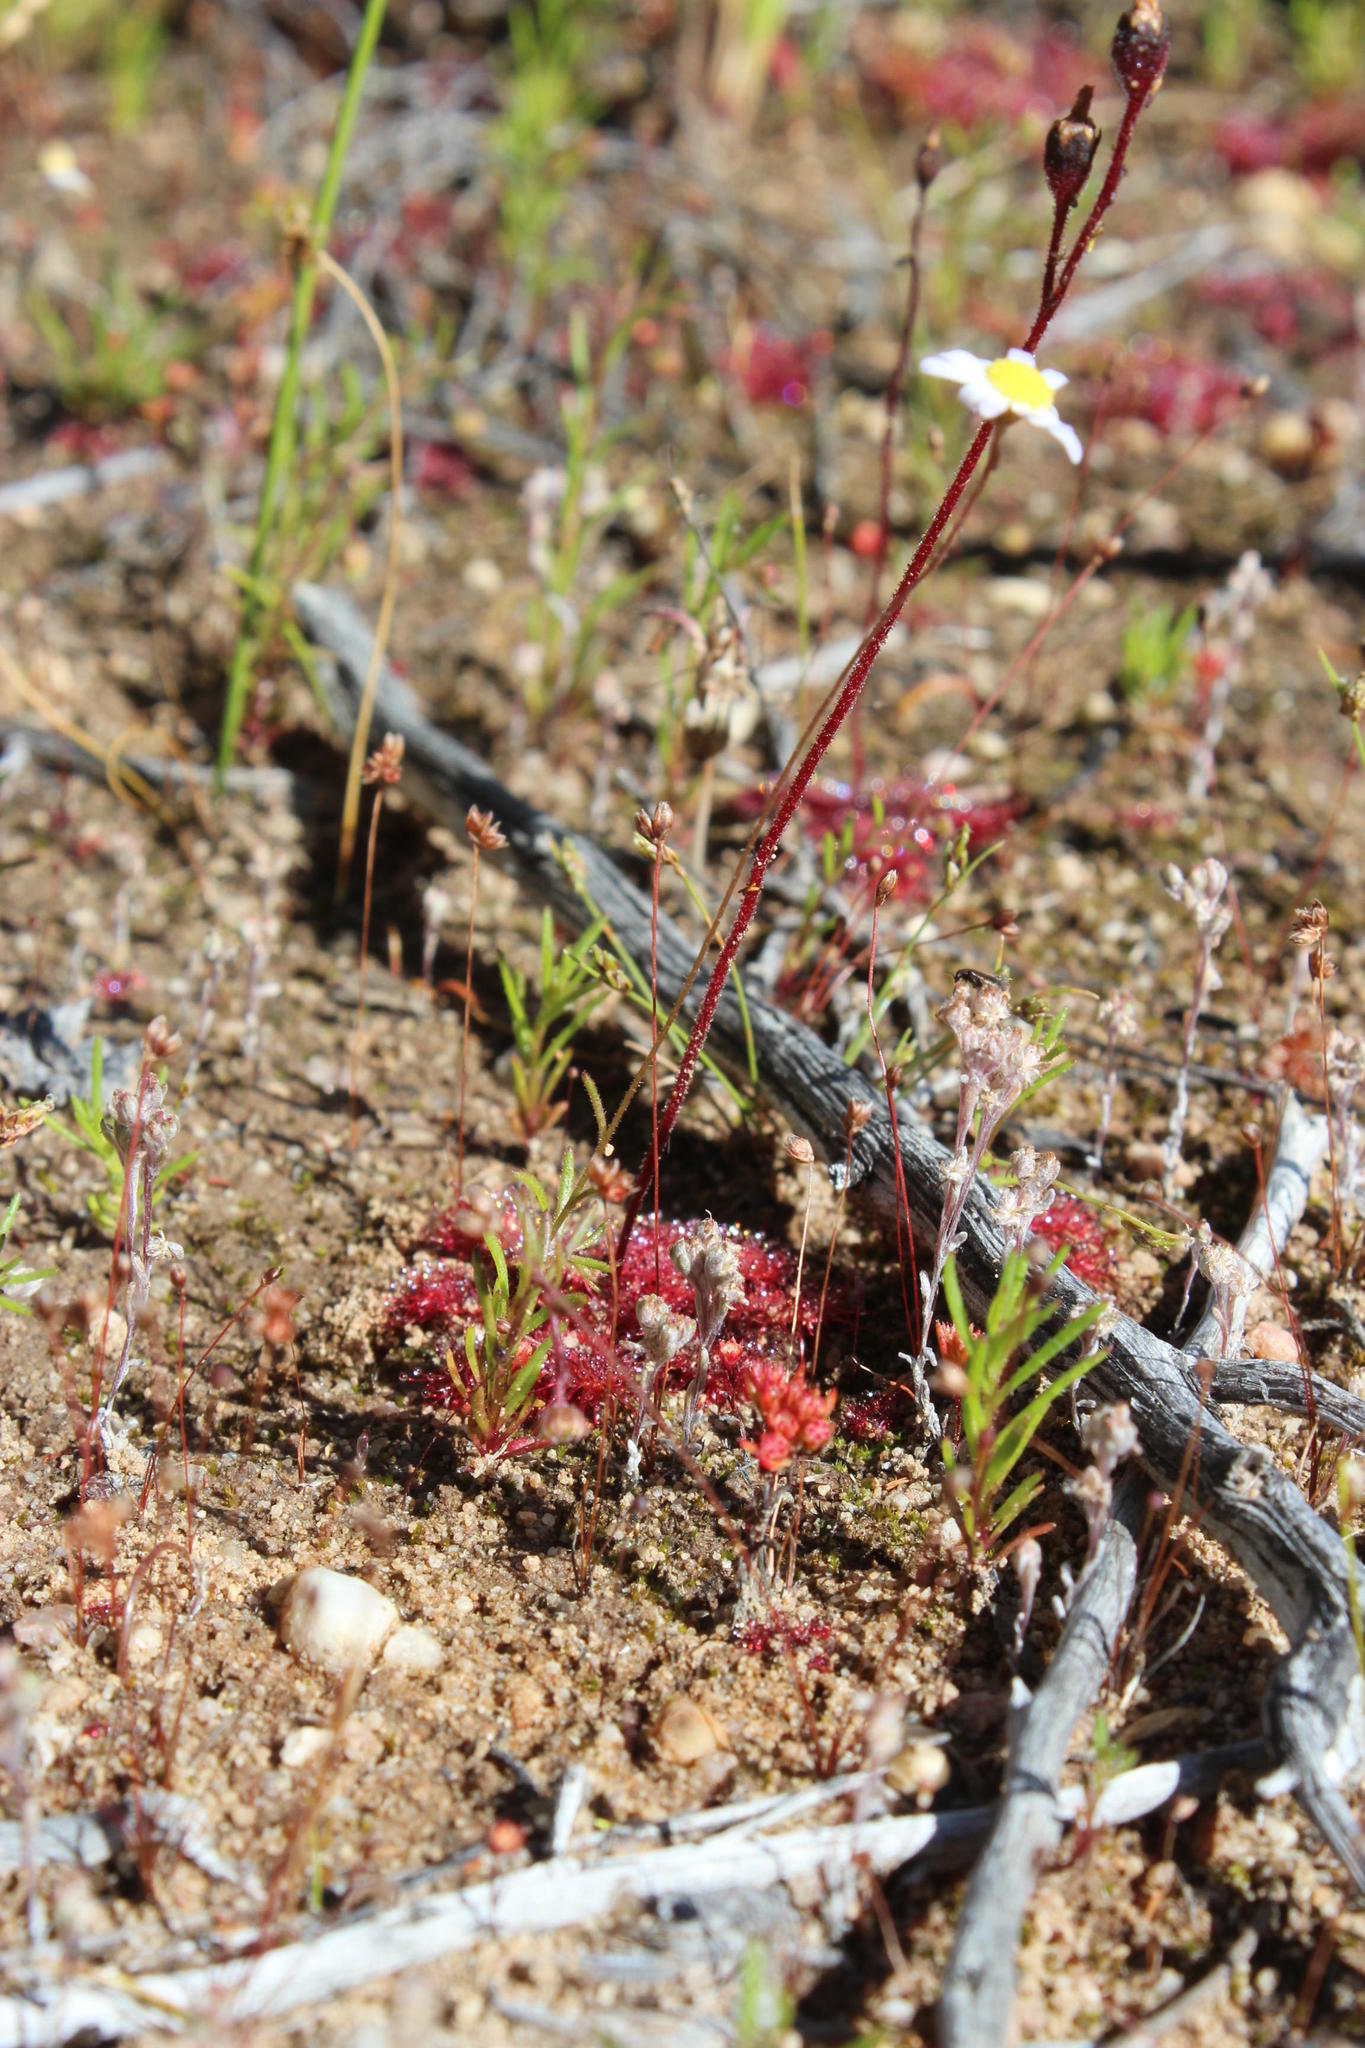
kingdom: Plantae
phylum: Tracheophyta
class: Magnoliopsida
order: Caryophyllales
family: Droseraceae
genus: Drosera
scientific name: Drosera trinervia
